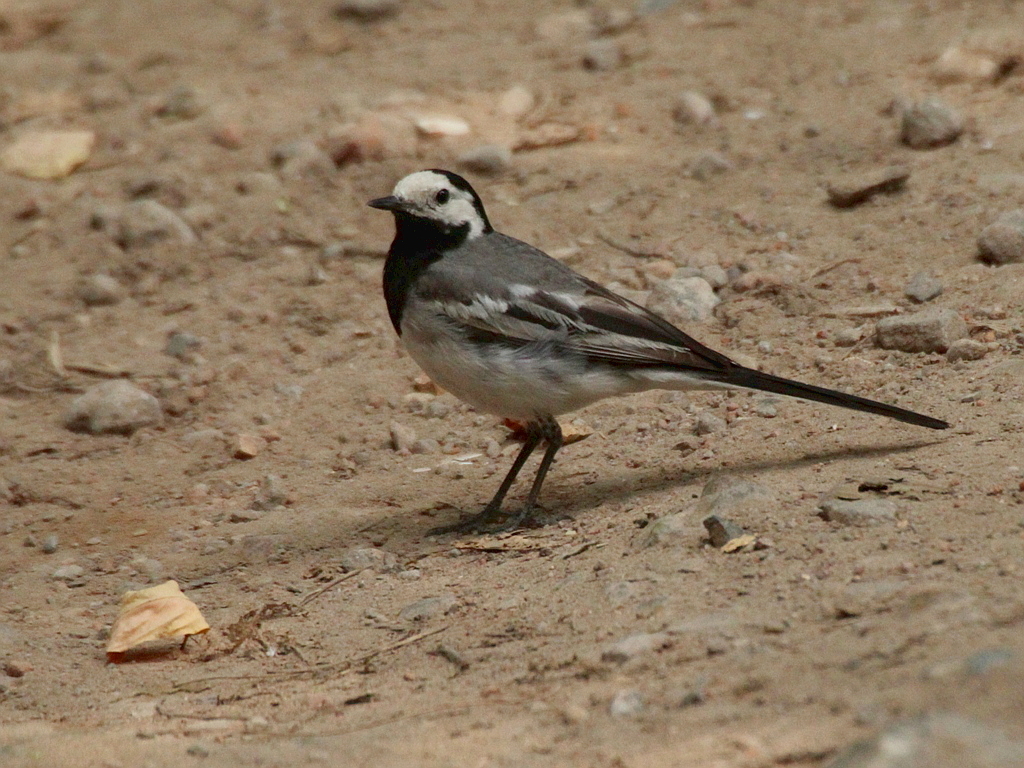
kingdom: Animalia
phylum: Chordata
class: Aves
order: Passeriformes
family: Motacillidae
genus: Motacilla
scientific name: Motacilla alba
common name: White wagtail
